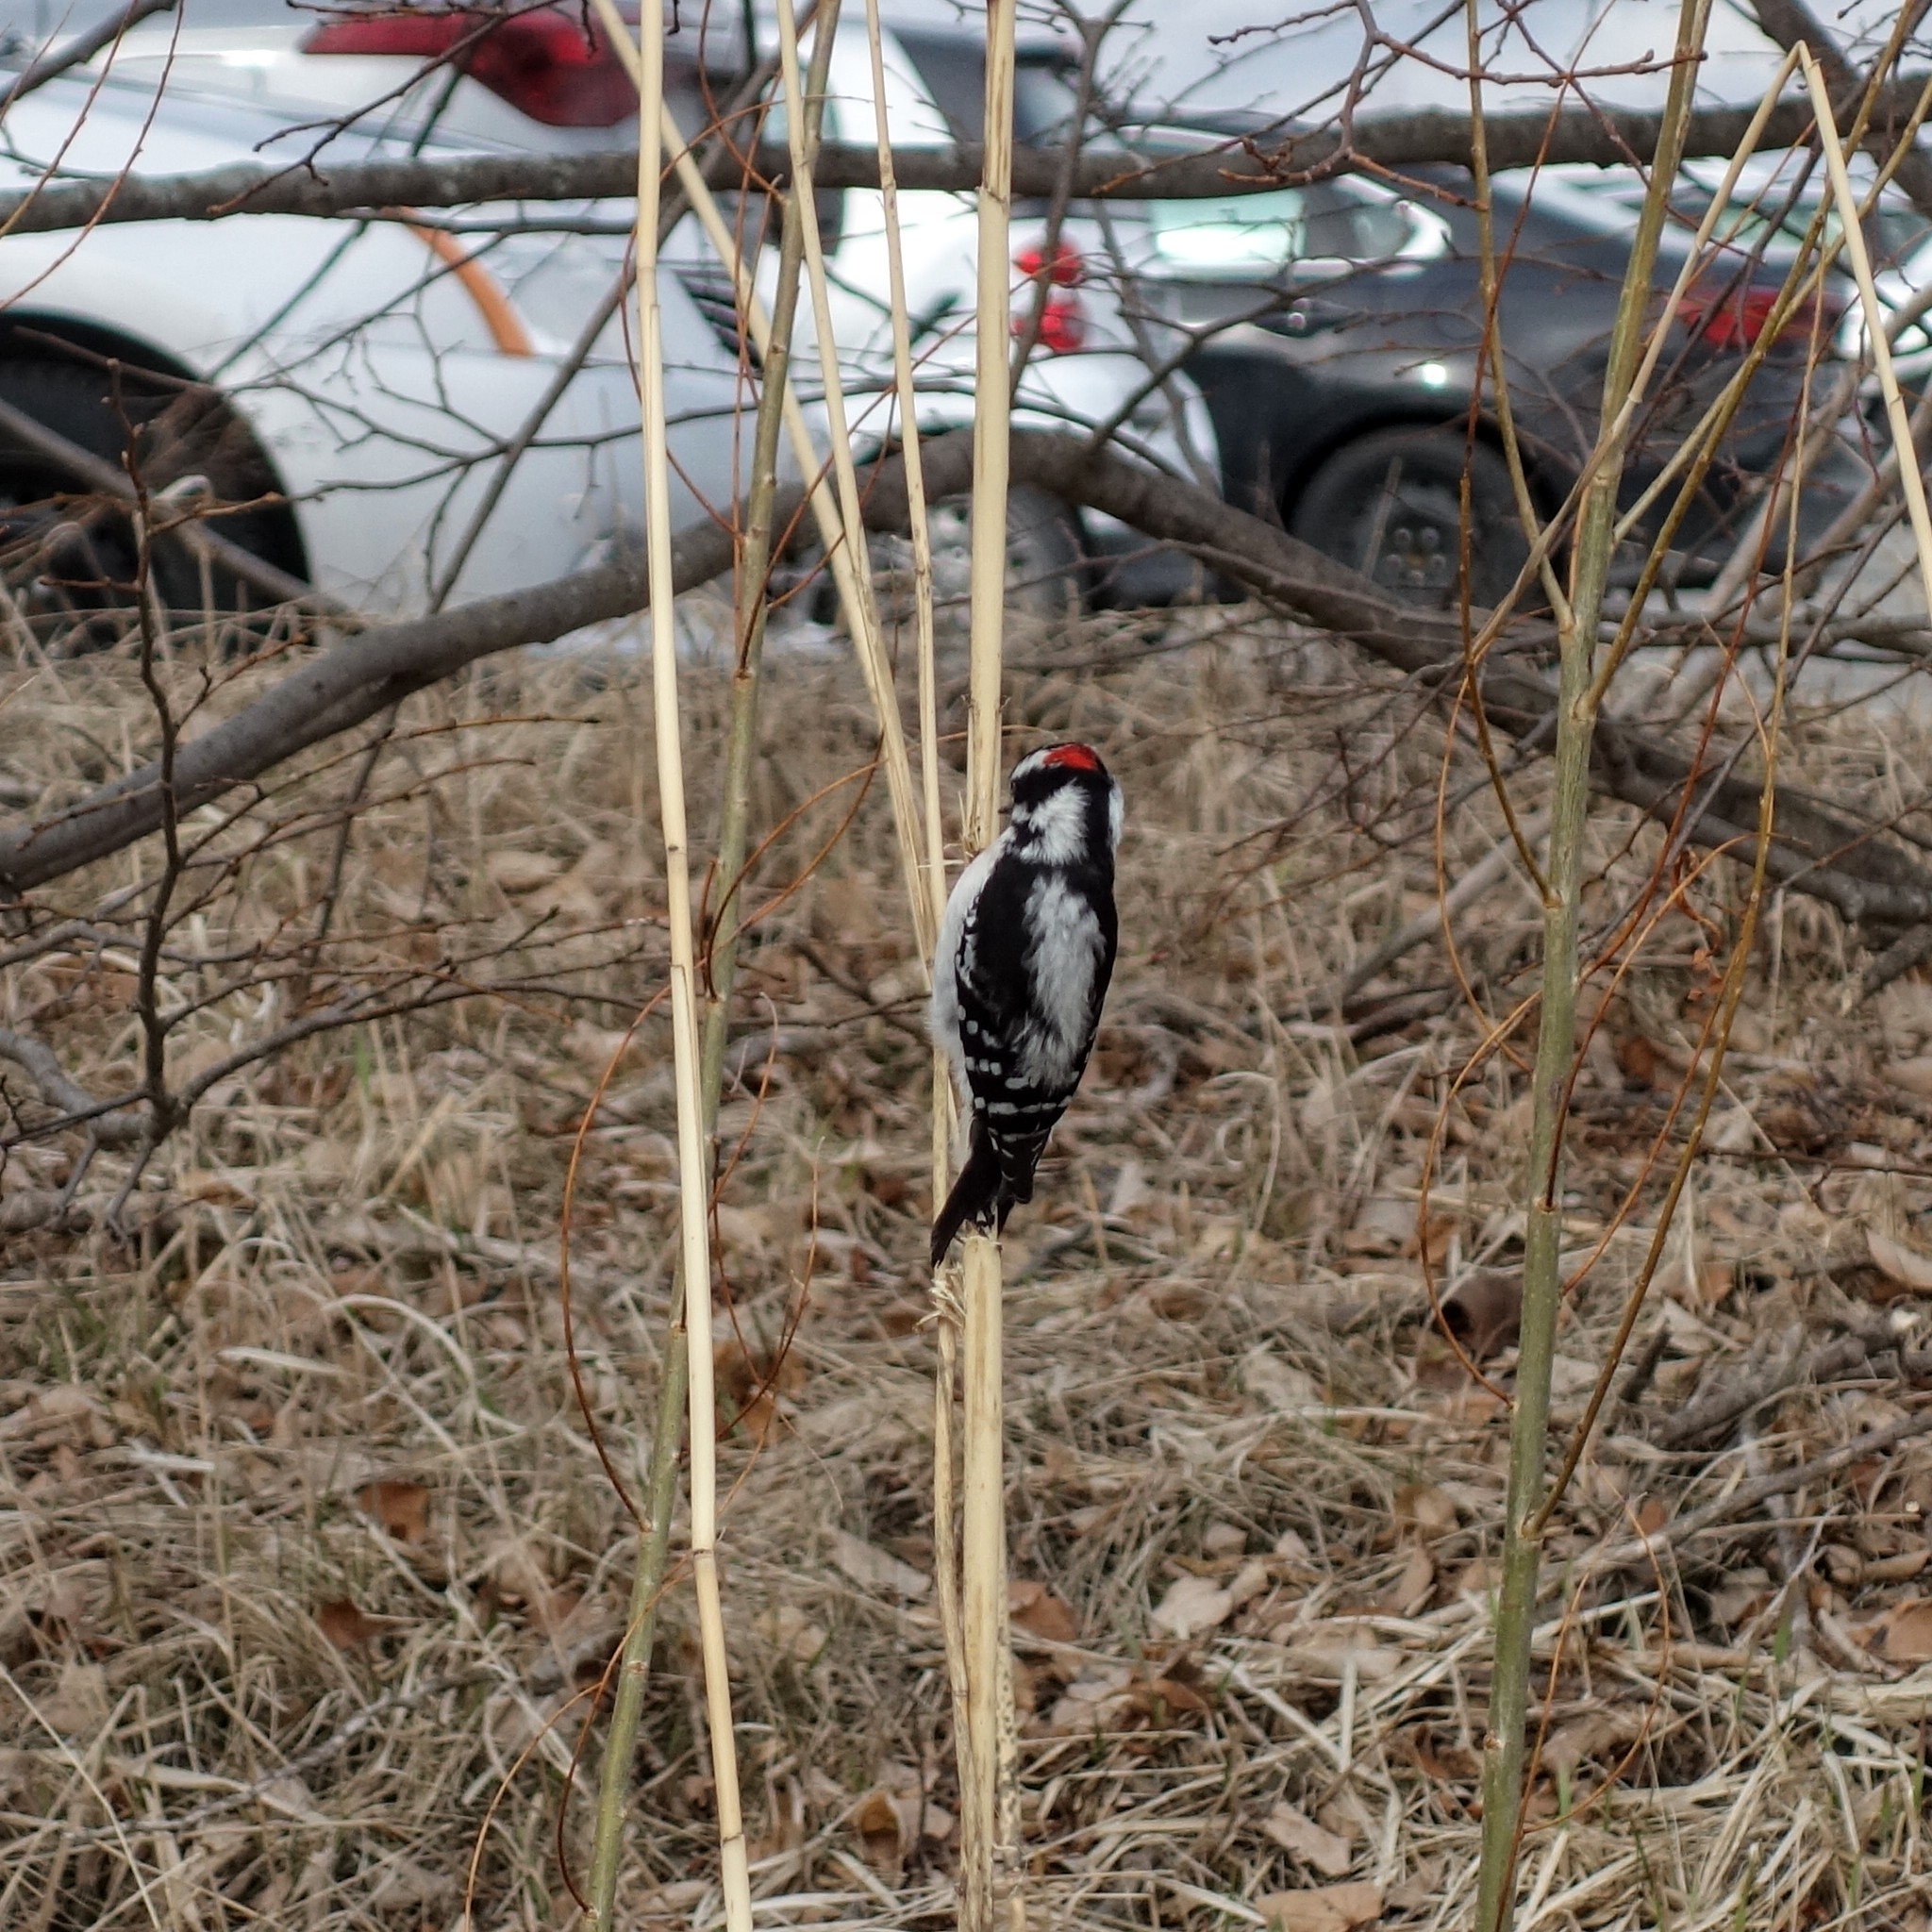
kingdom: Animalia
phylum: Chordata
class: Aves
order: Piciformes
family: Picidae
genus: Dryobates
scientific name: Dryobates pubescens
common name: Downy woodpecker
